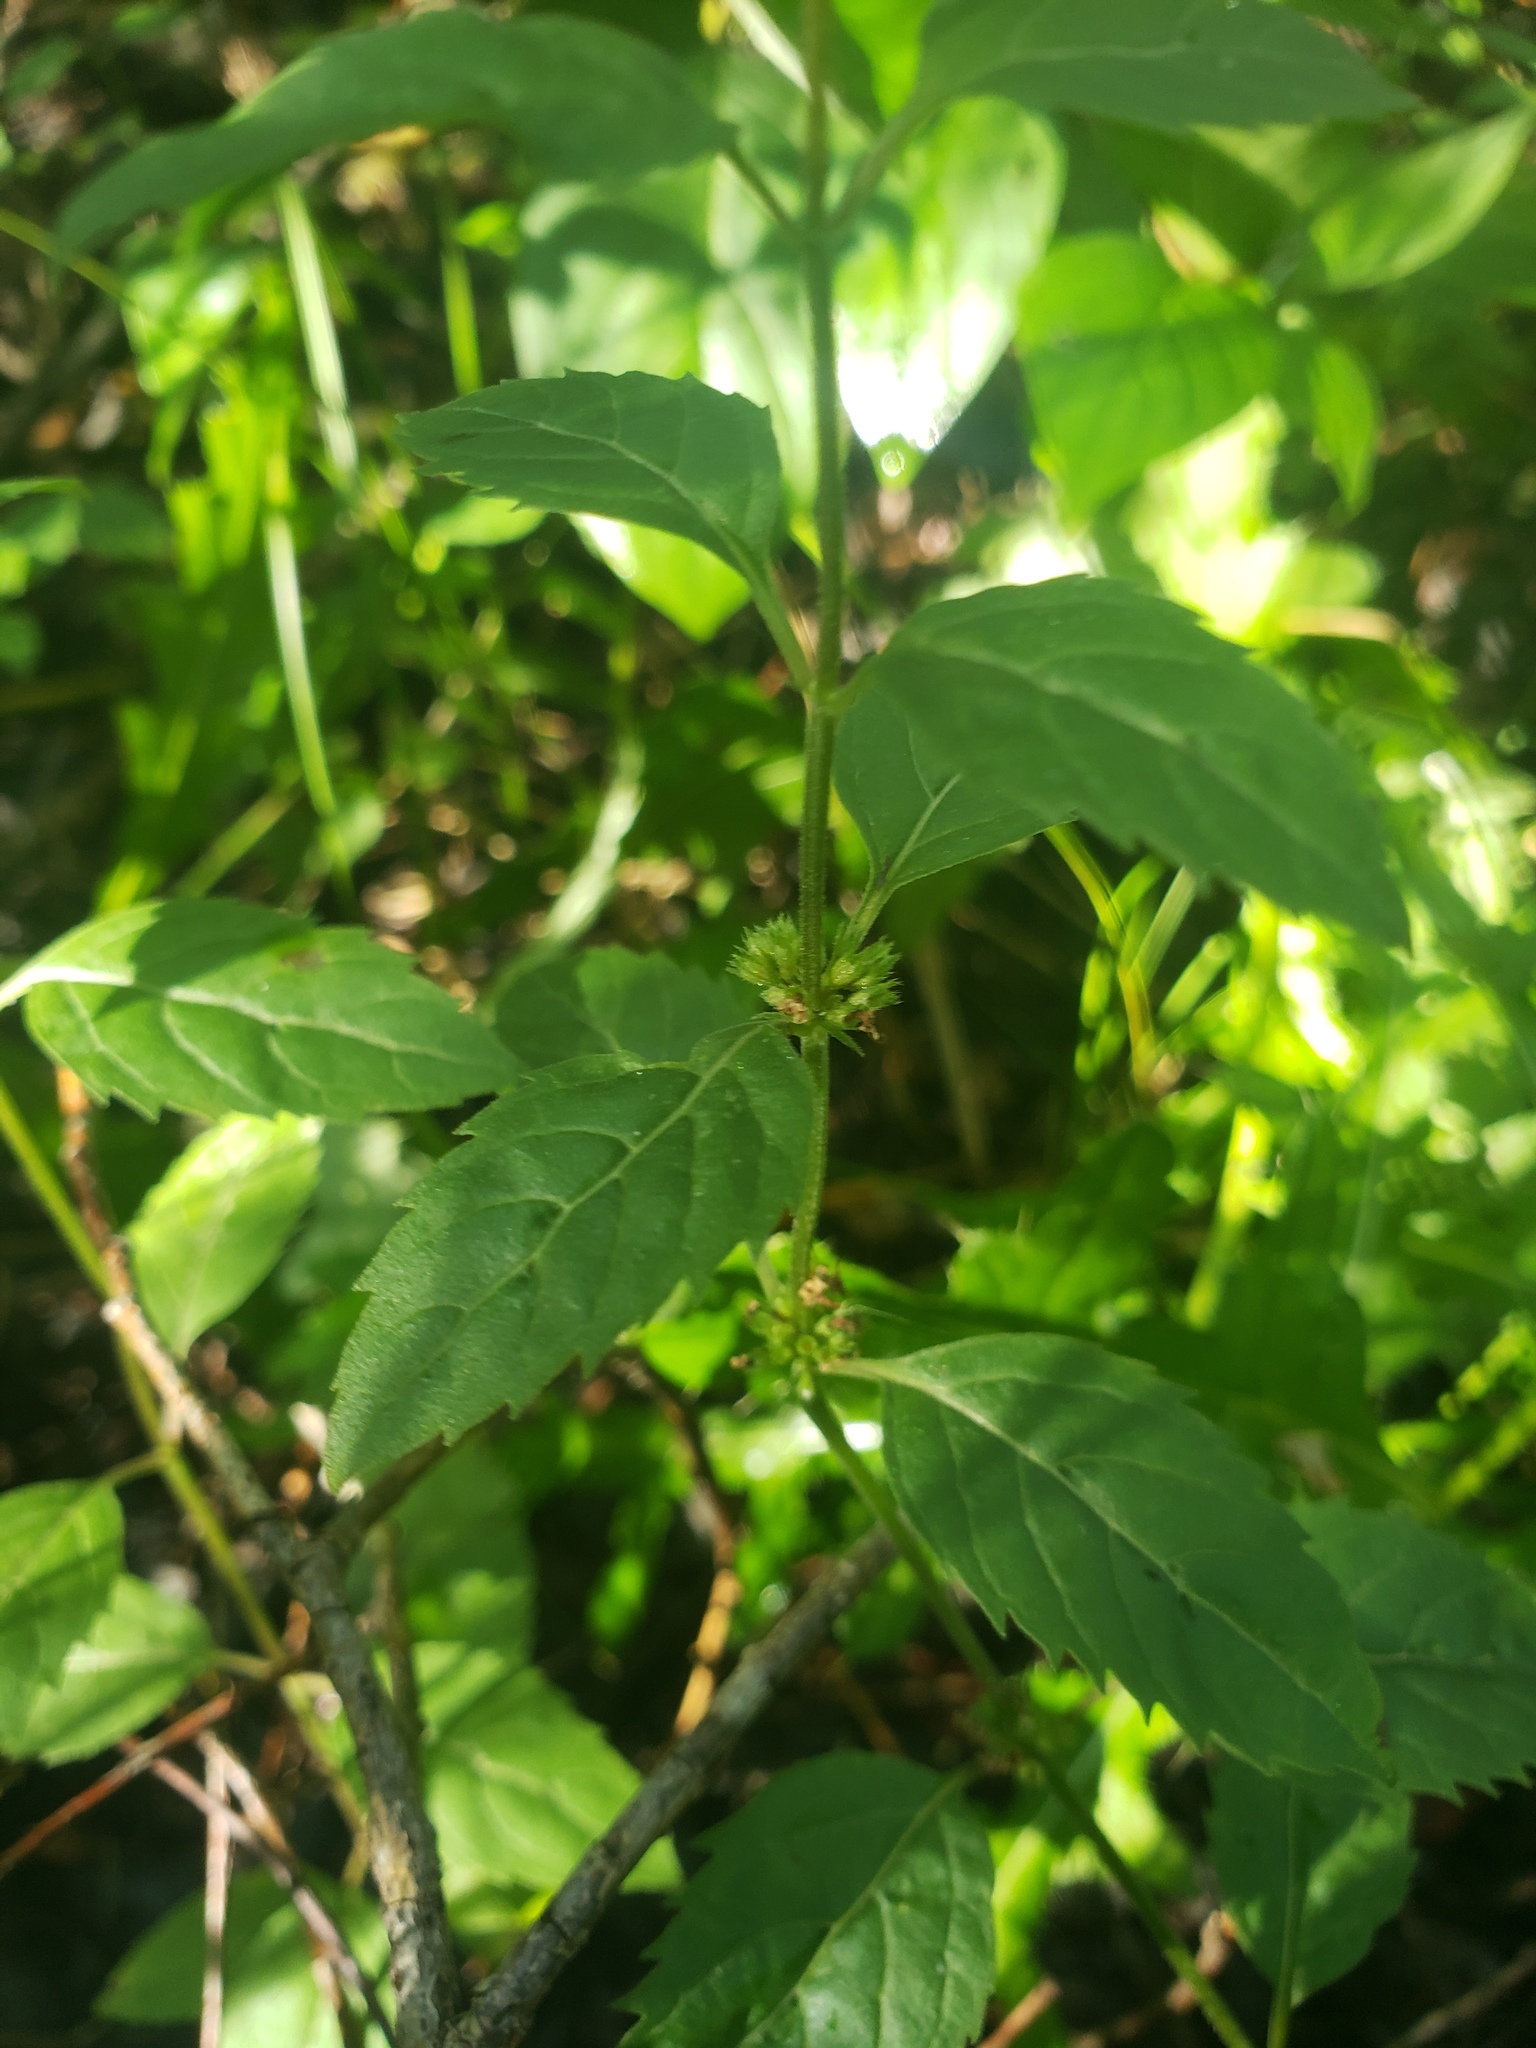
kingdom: Plantae
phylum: Tracheophyta
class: Magnoliopsida
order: Lamiales
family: Lamiaceae
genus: Mentha
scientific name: Mentha canadensis
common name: American corn mint
